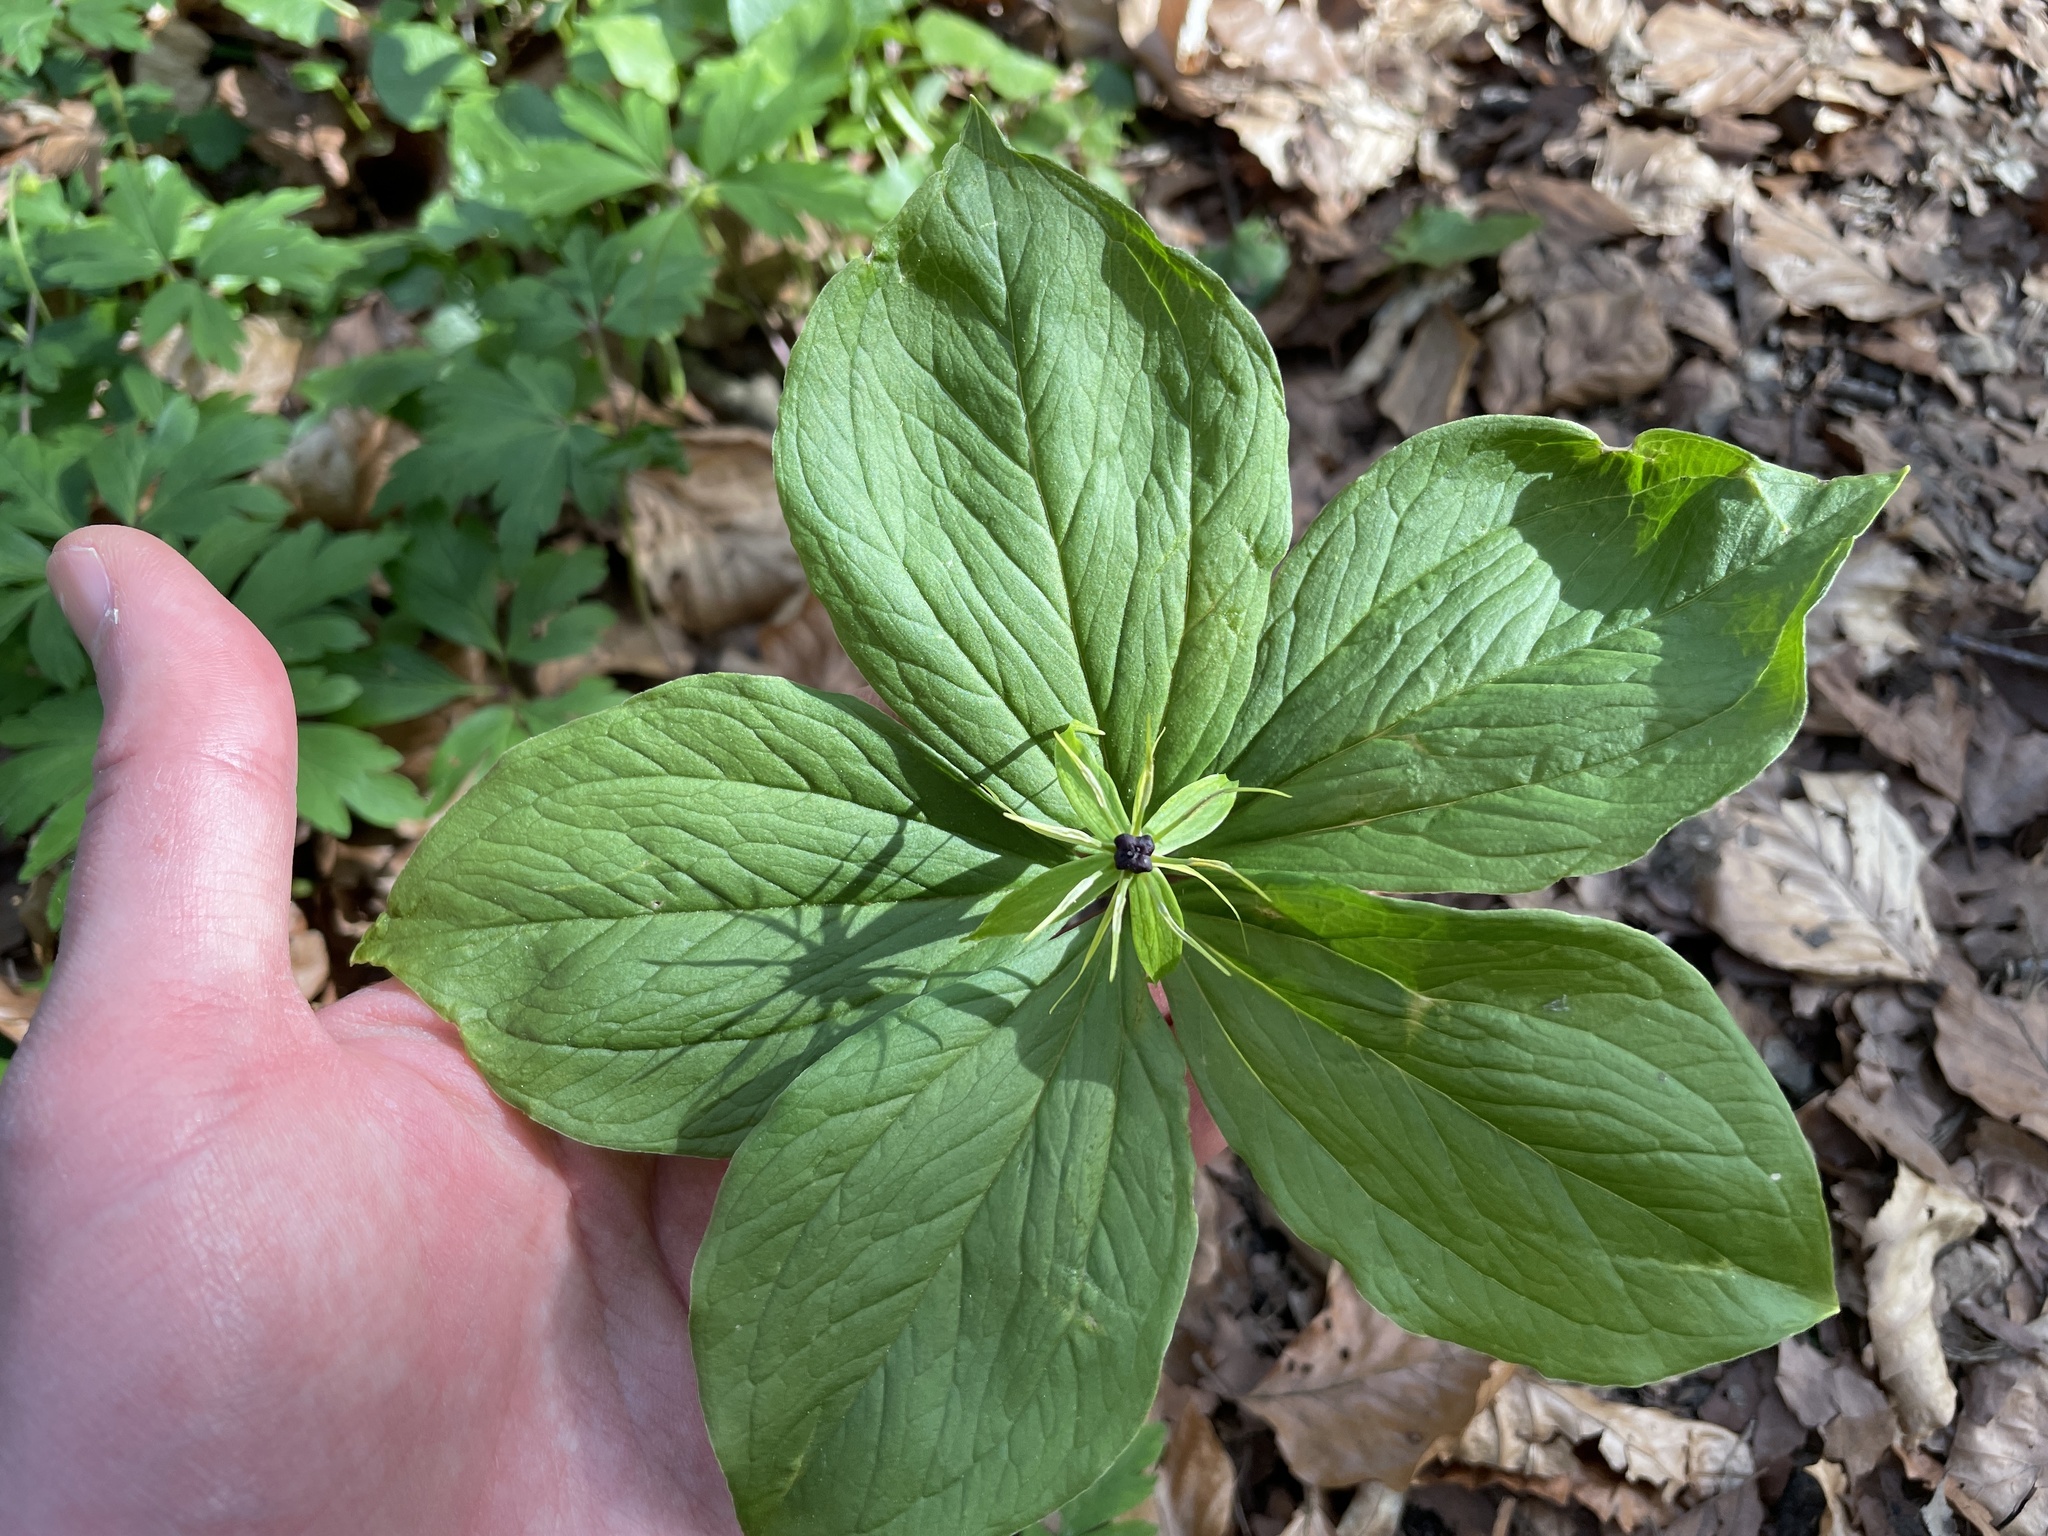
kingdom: Plantae
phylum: Tracheophyta
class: Liliopsida
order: Liliales
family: Melanthiaceae
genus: Paris
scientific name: Paris quadrifolia
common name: Herb-paris
